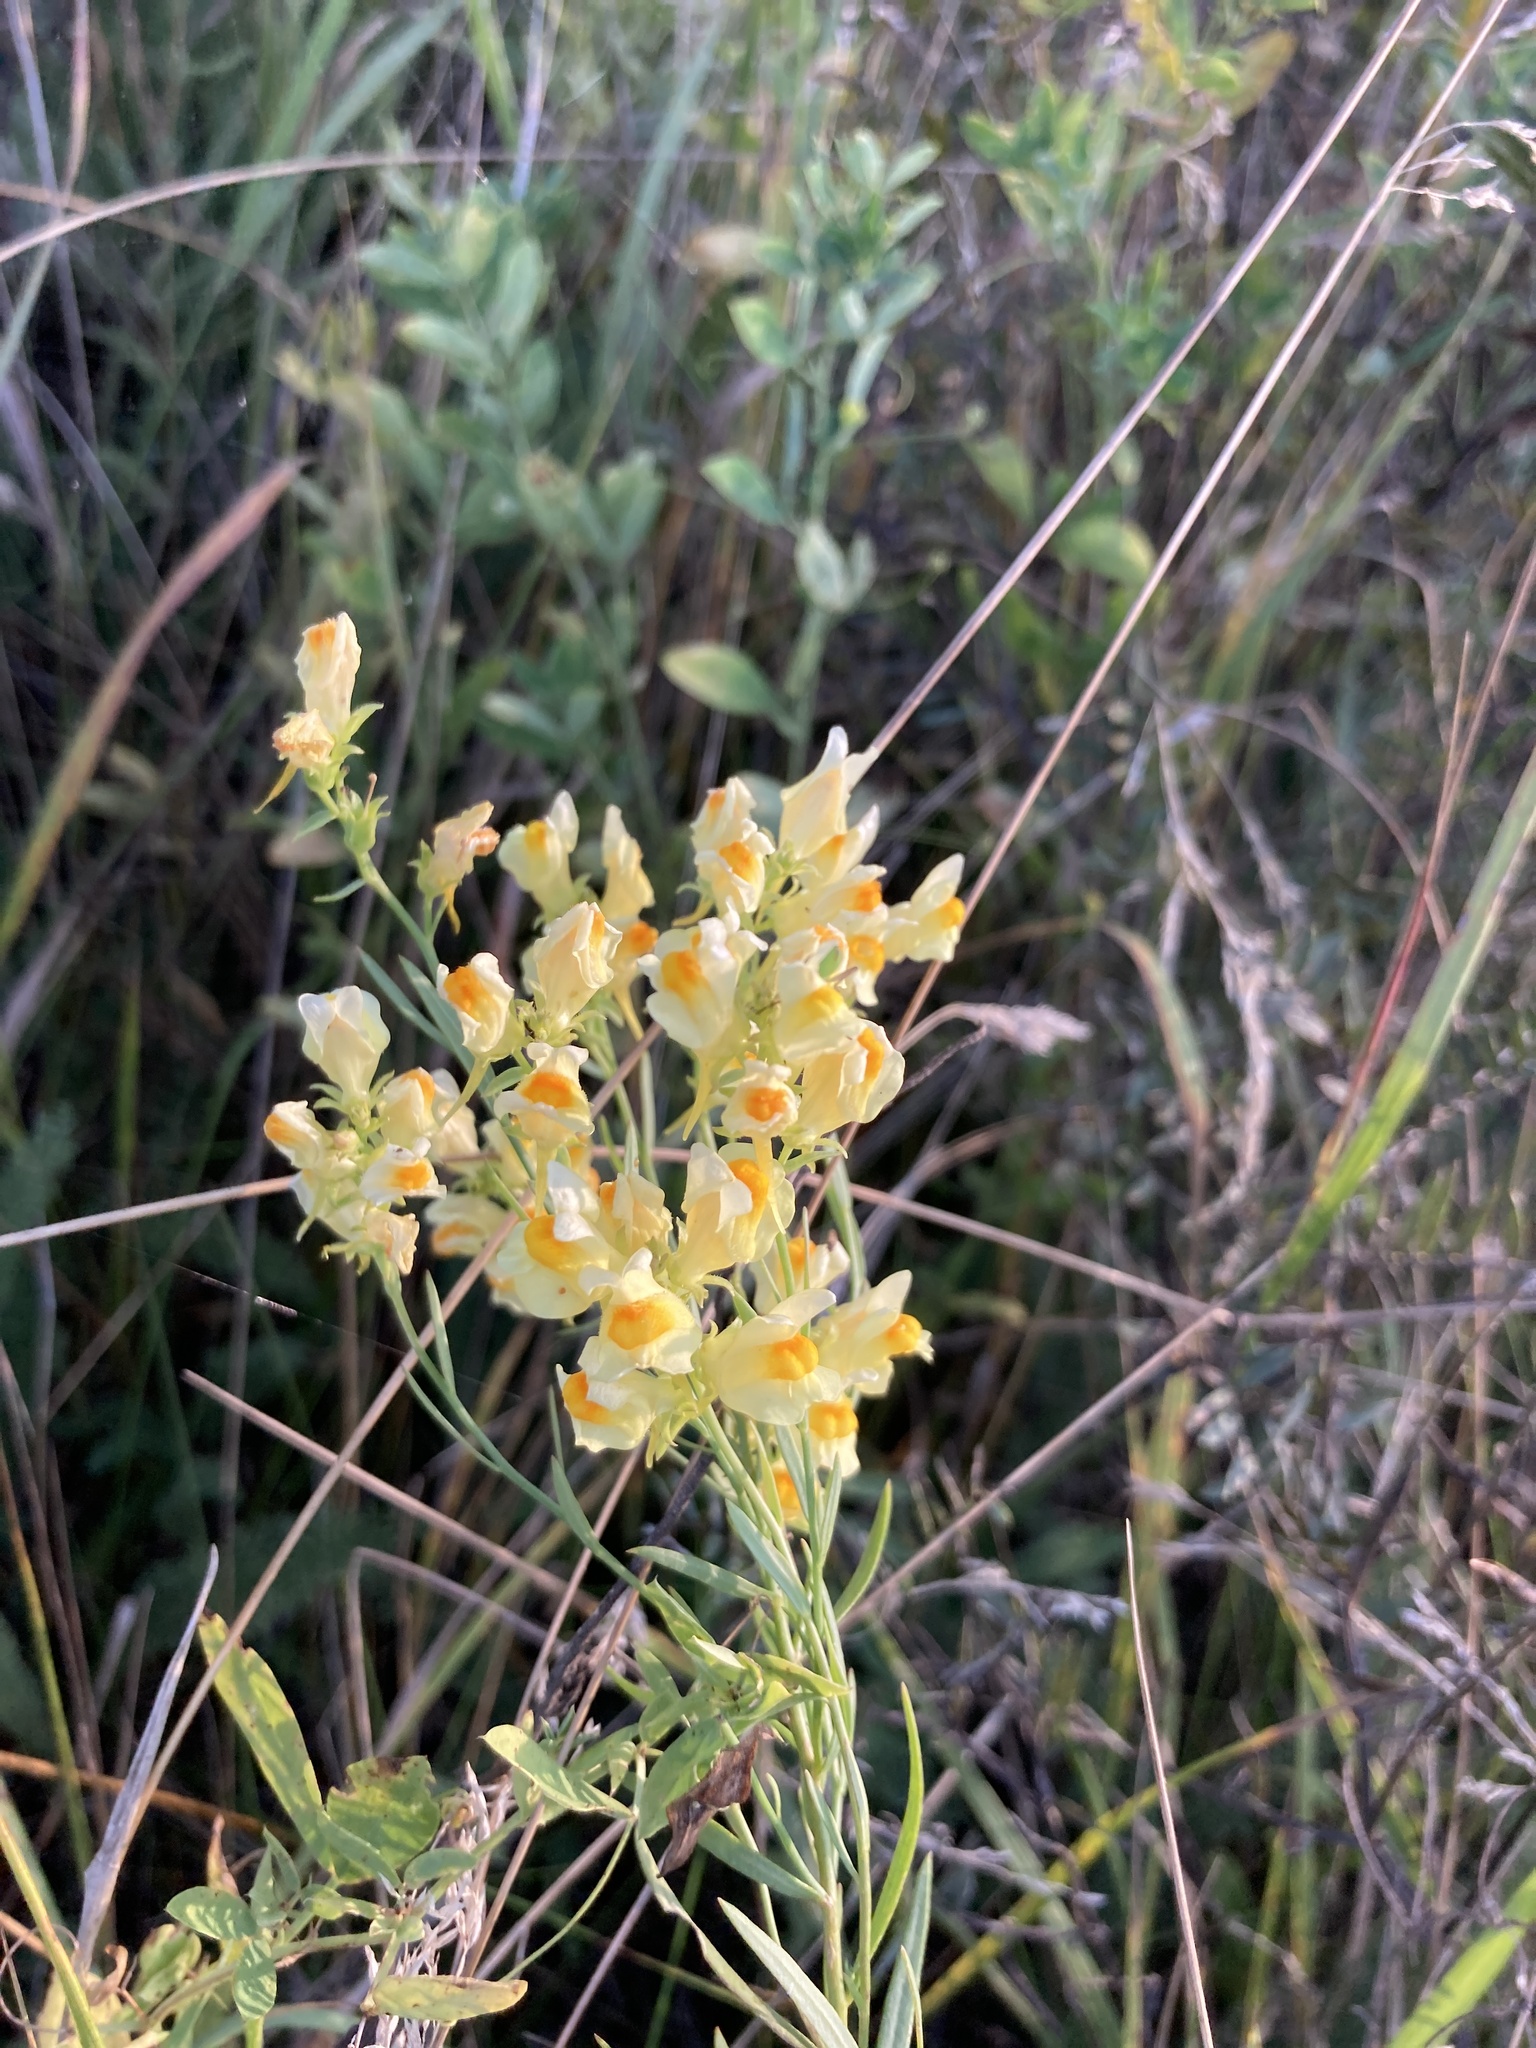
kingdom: Plantae
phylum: Tracheophyta
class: Magnoliopsida
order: Lamiales
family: Plantaginaceae
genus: Linaria
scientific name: Linaria vulgaris
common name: Butter and eggs
